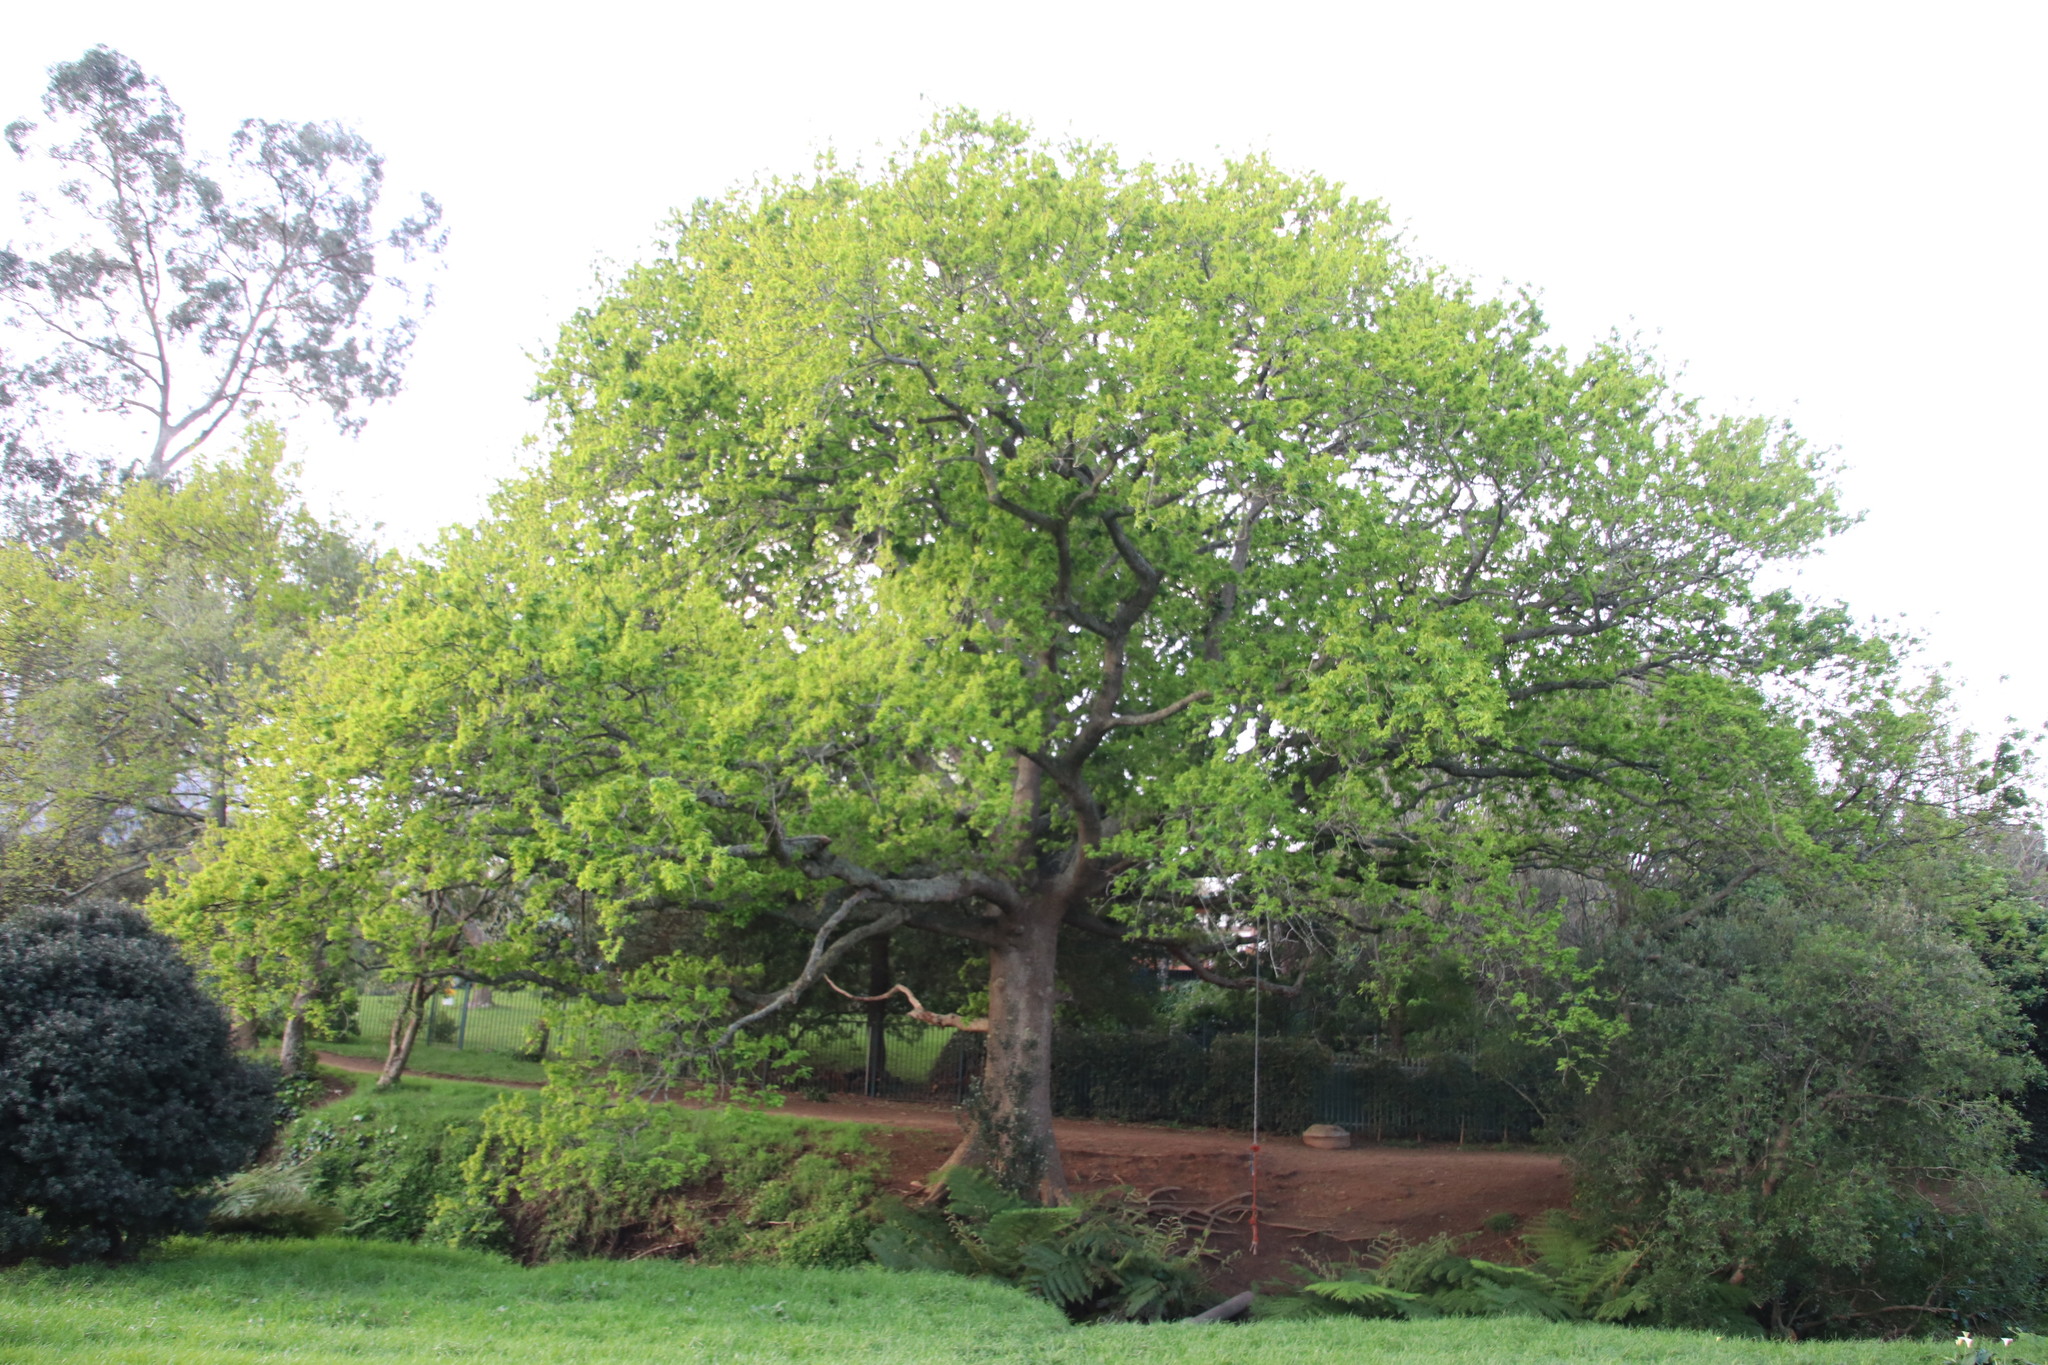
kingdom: Plantae
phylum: Tracheophyta
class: Magnoliopsida
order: Fagales
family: Fagaceae
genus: Quercus
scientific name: Quercus robur
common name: Pedunculate oak
